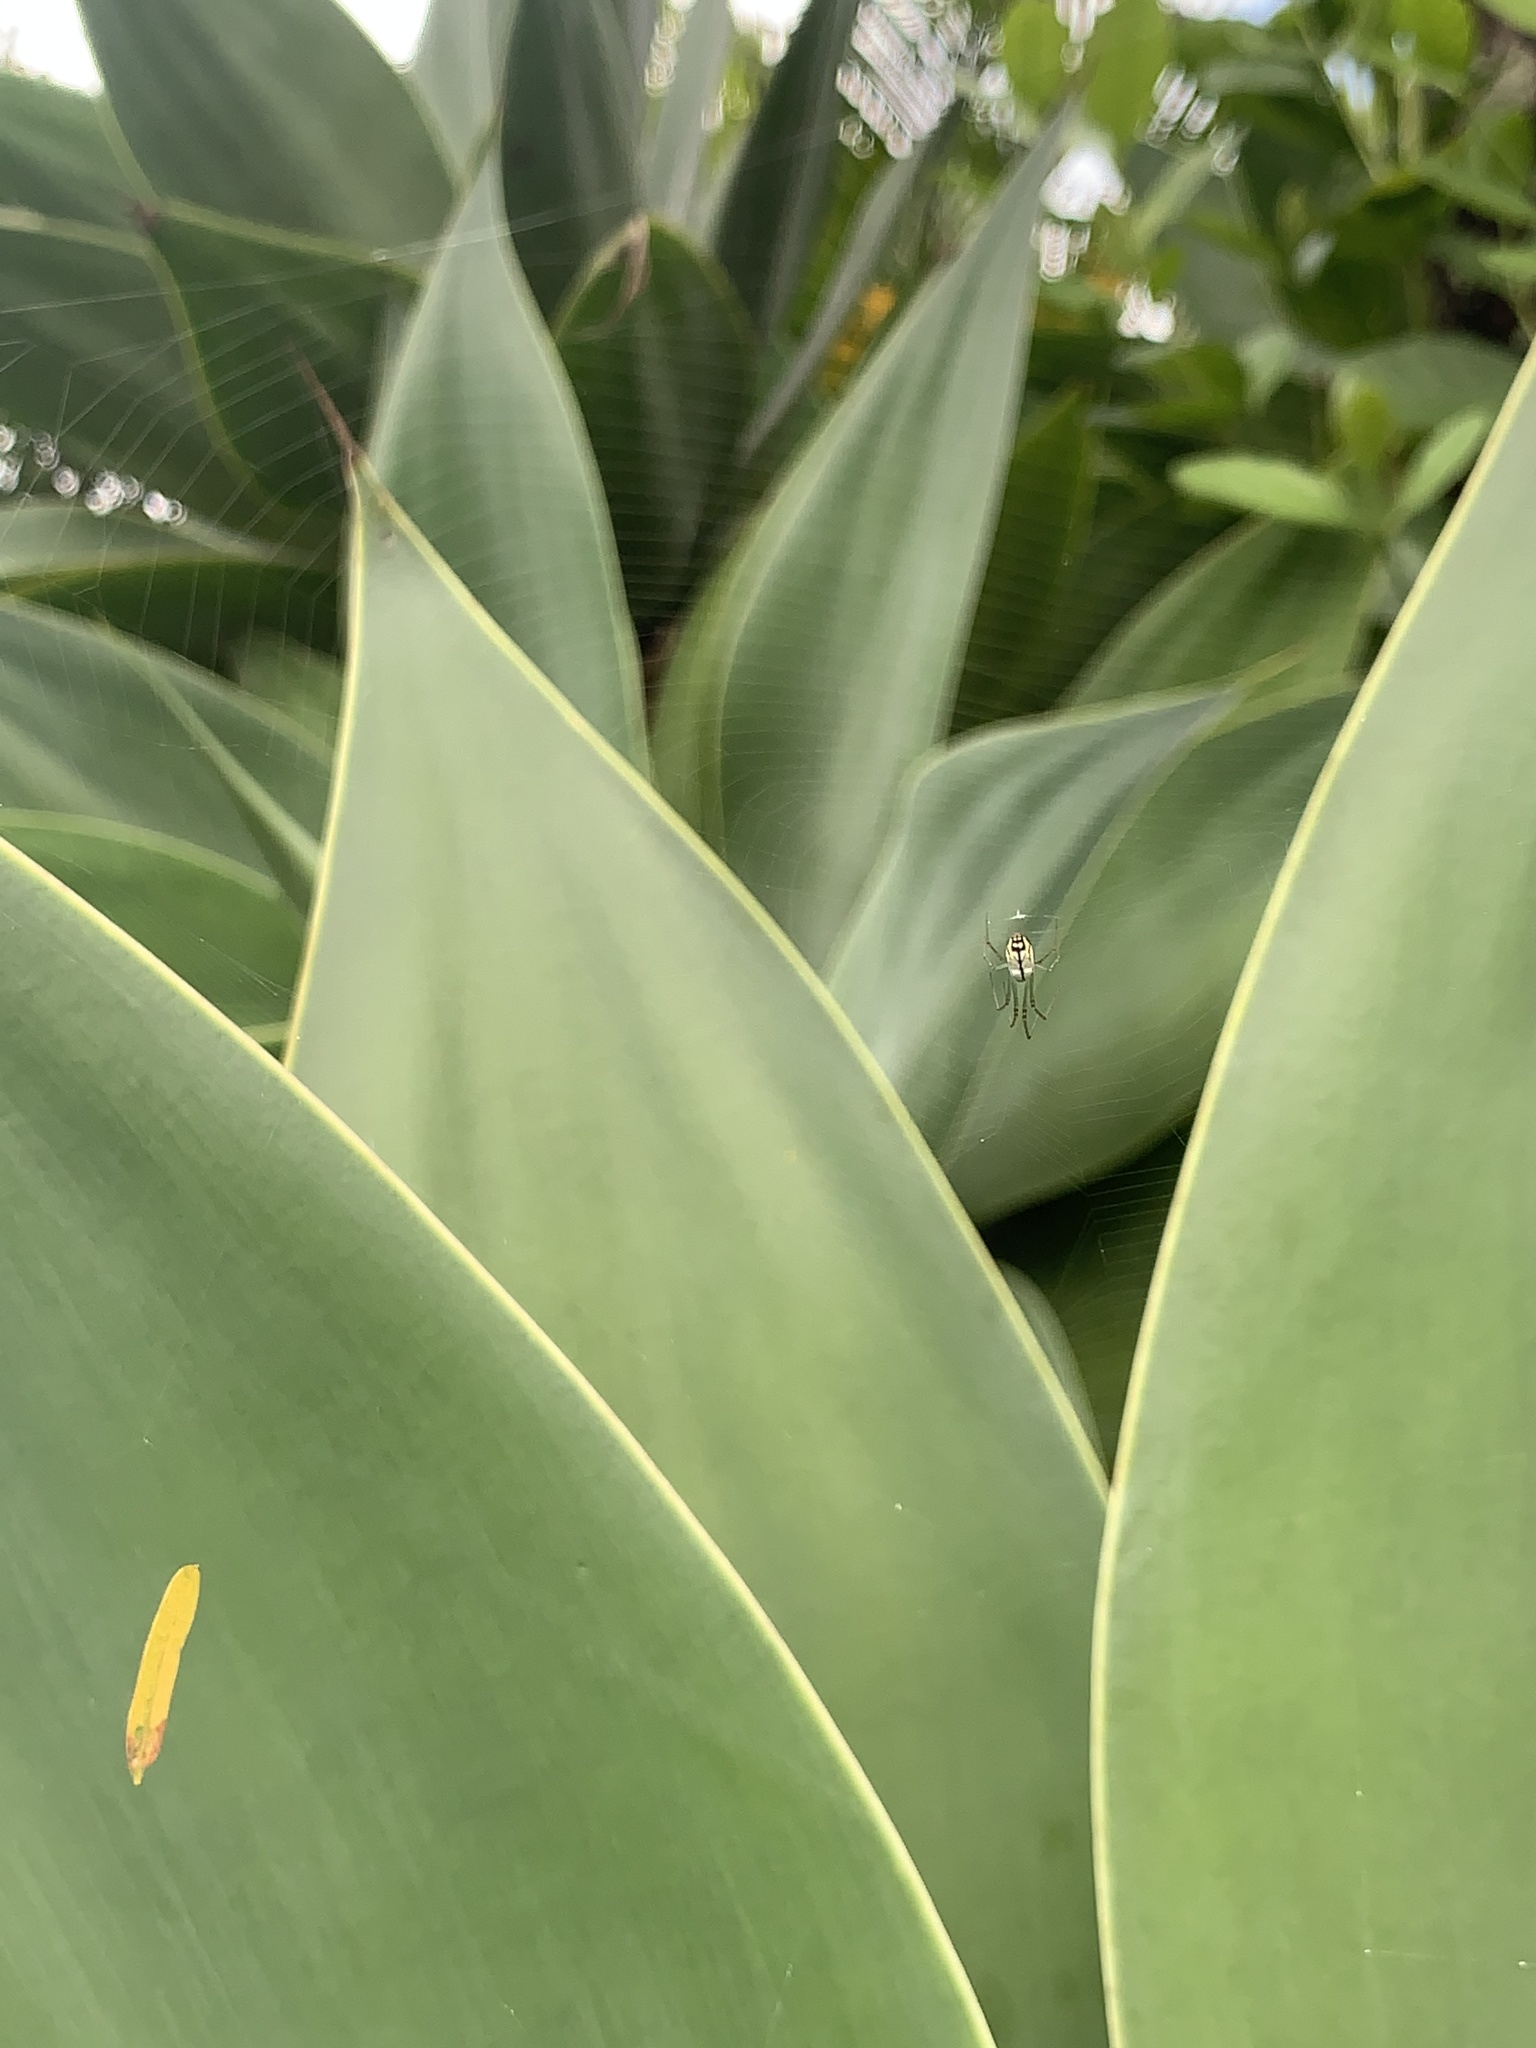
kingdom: Animalia
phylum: Arthropoda
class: Arachnida
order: Araneae
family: Tetragnathidae
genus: Leucauge
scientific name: Leucauge volupis
